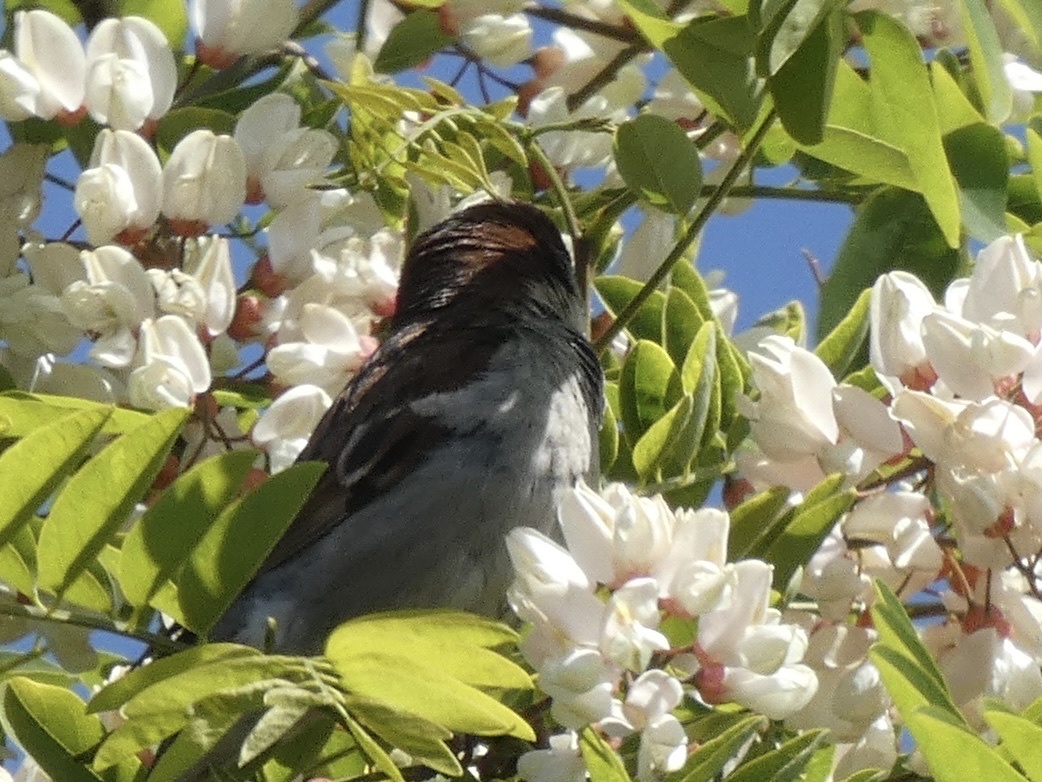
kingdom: Animalia
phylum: Chordata
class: Aves
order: Passeriformes
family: Passeridae
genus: Passer
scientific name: Passer domesticus
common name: House sparrow
